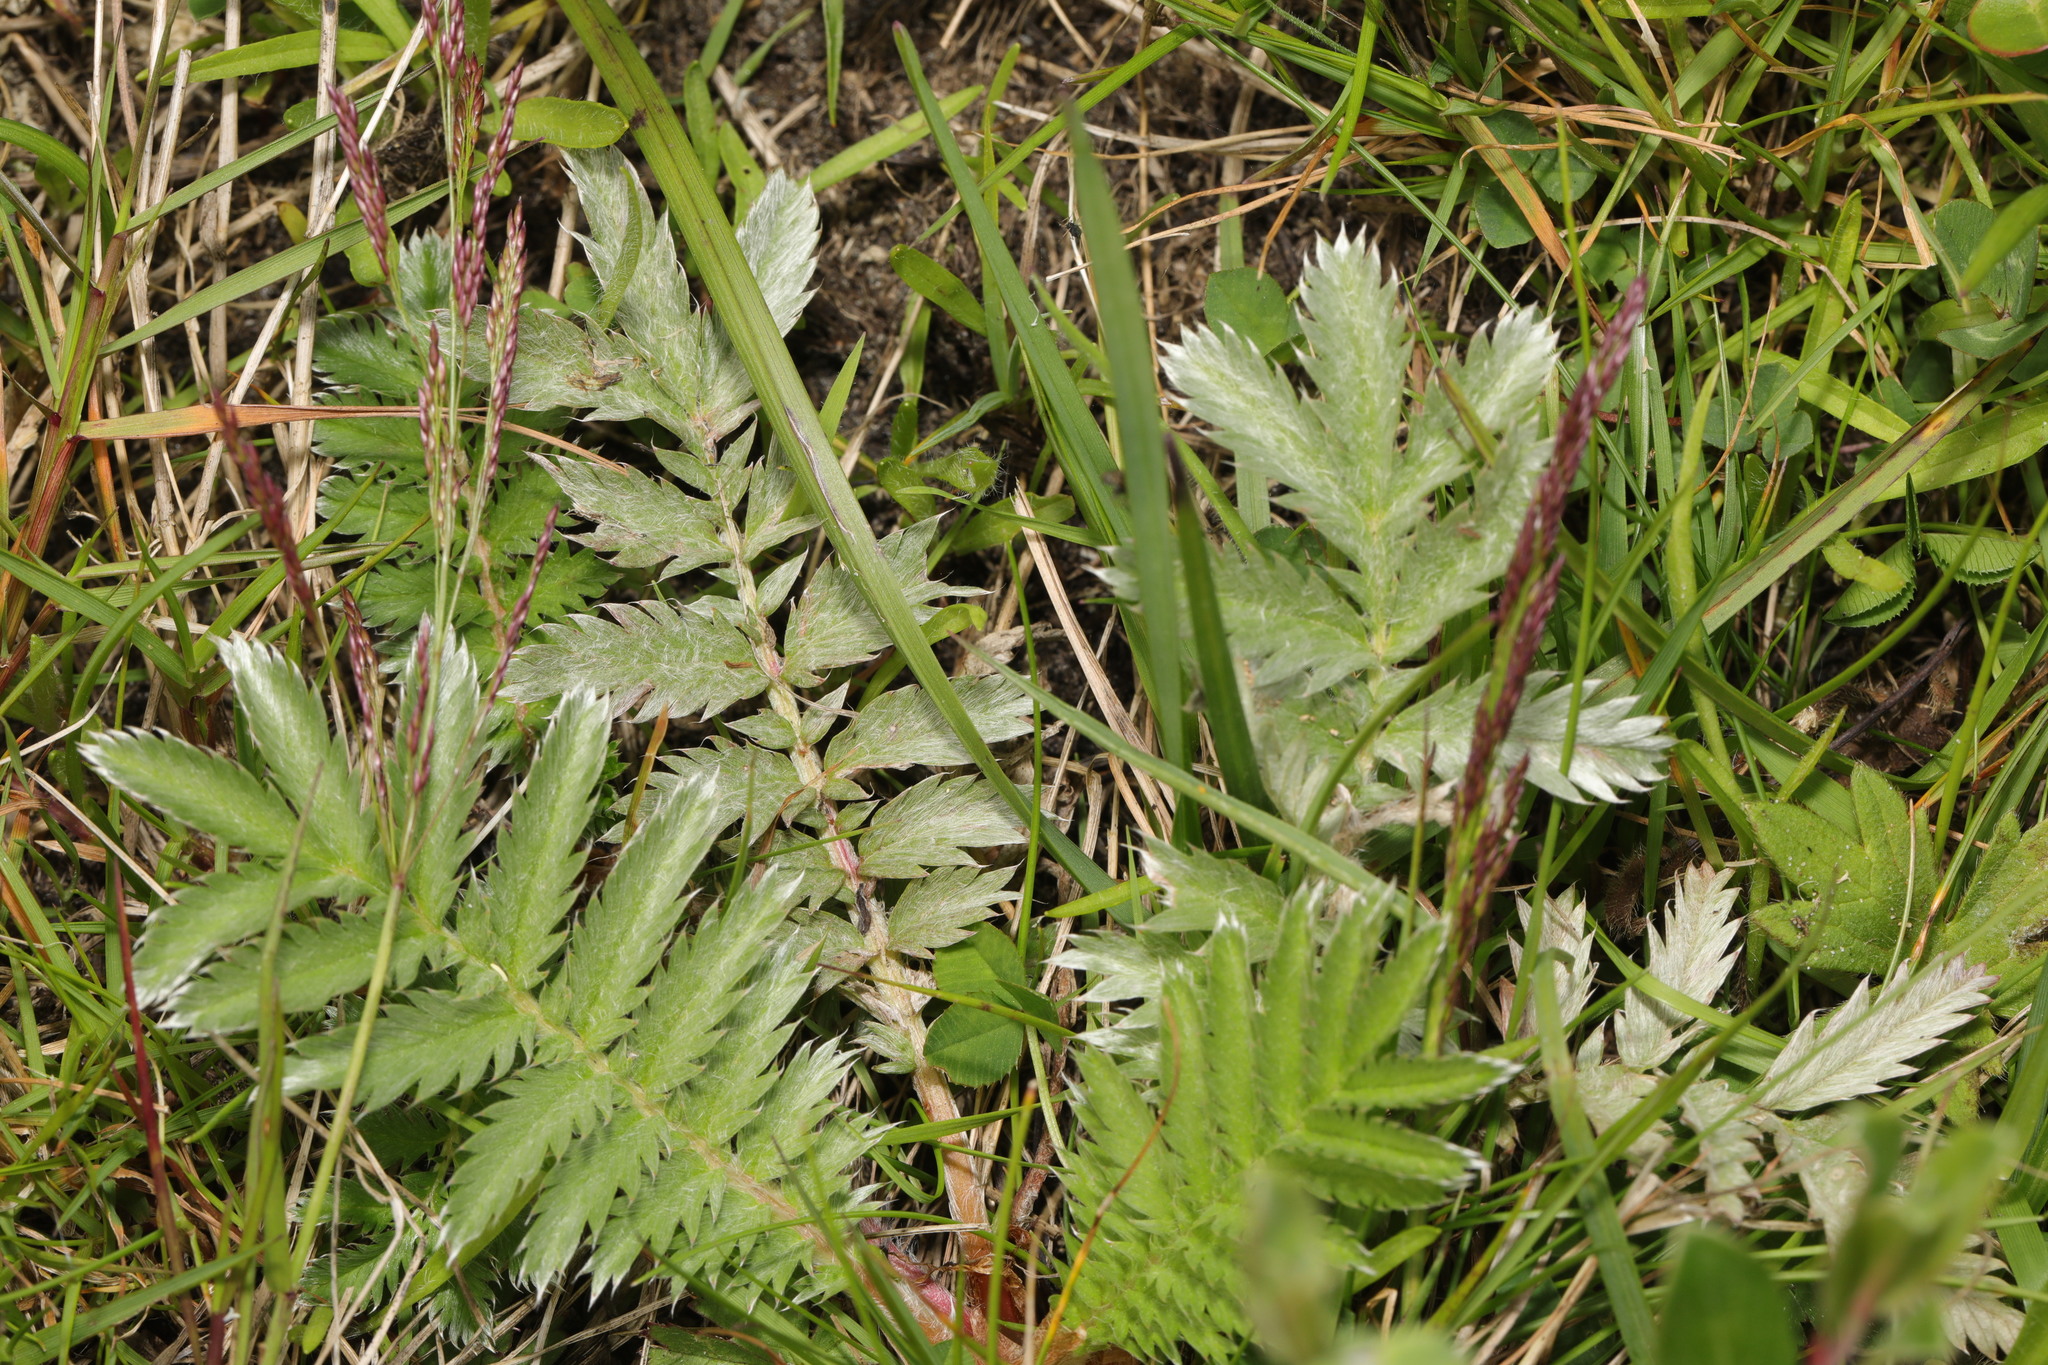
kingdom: Plantae
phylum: Tracheophyta
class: Magnoliopsida
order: Rosales
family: Rosaceae
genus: Argentina
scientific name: Argentina anserina
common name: Common silverweed
